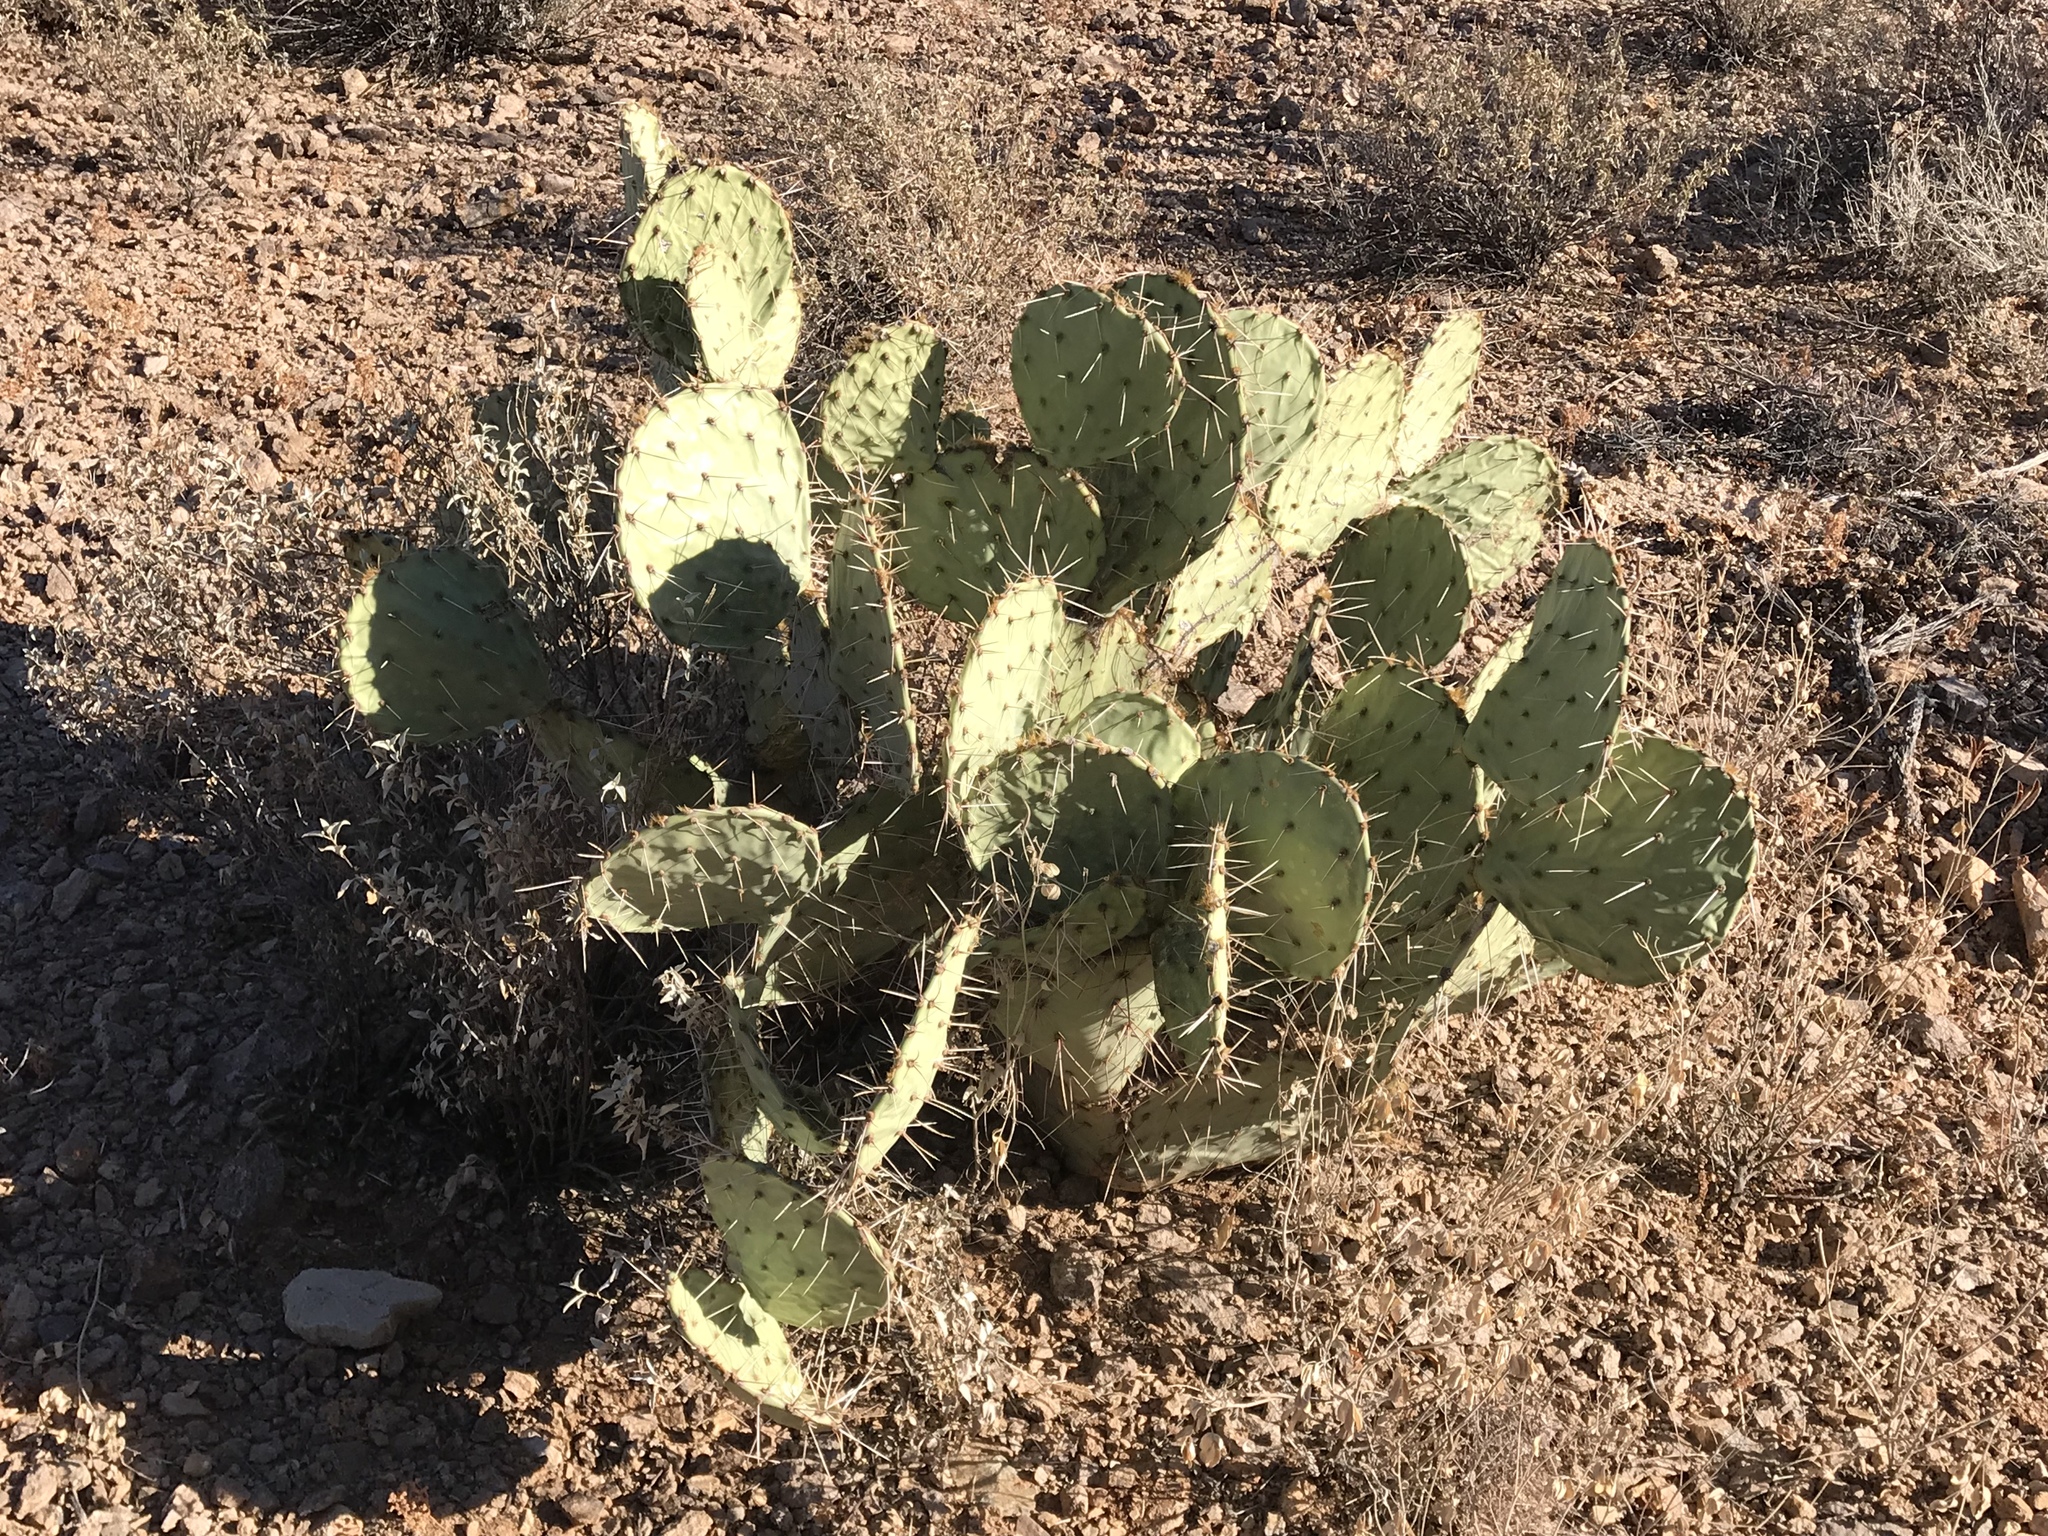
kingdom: Plantae
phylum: Tracheophyta
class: Magnoliopsida
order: Caryophyllales
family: Cactaceae
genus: Opuntia
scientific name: Opuntia phaeacantha
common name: New mexico prickly-pear
